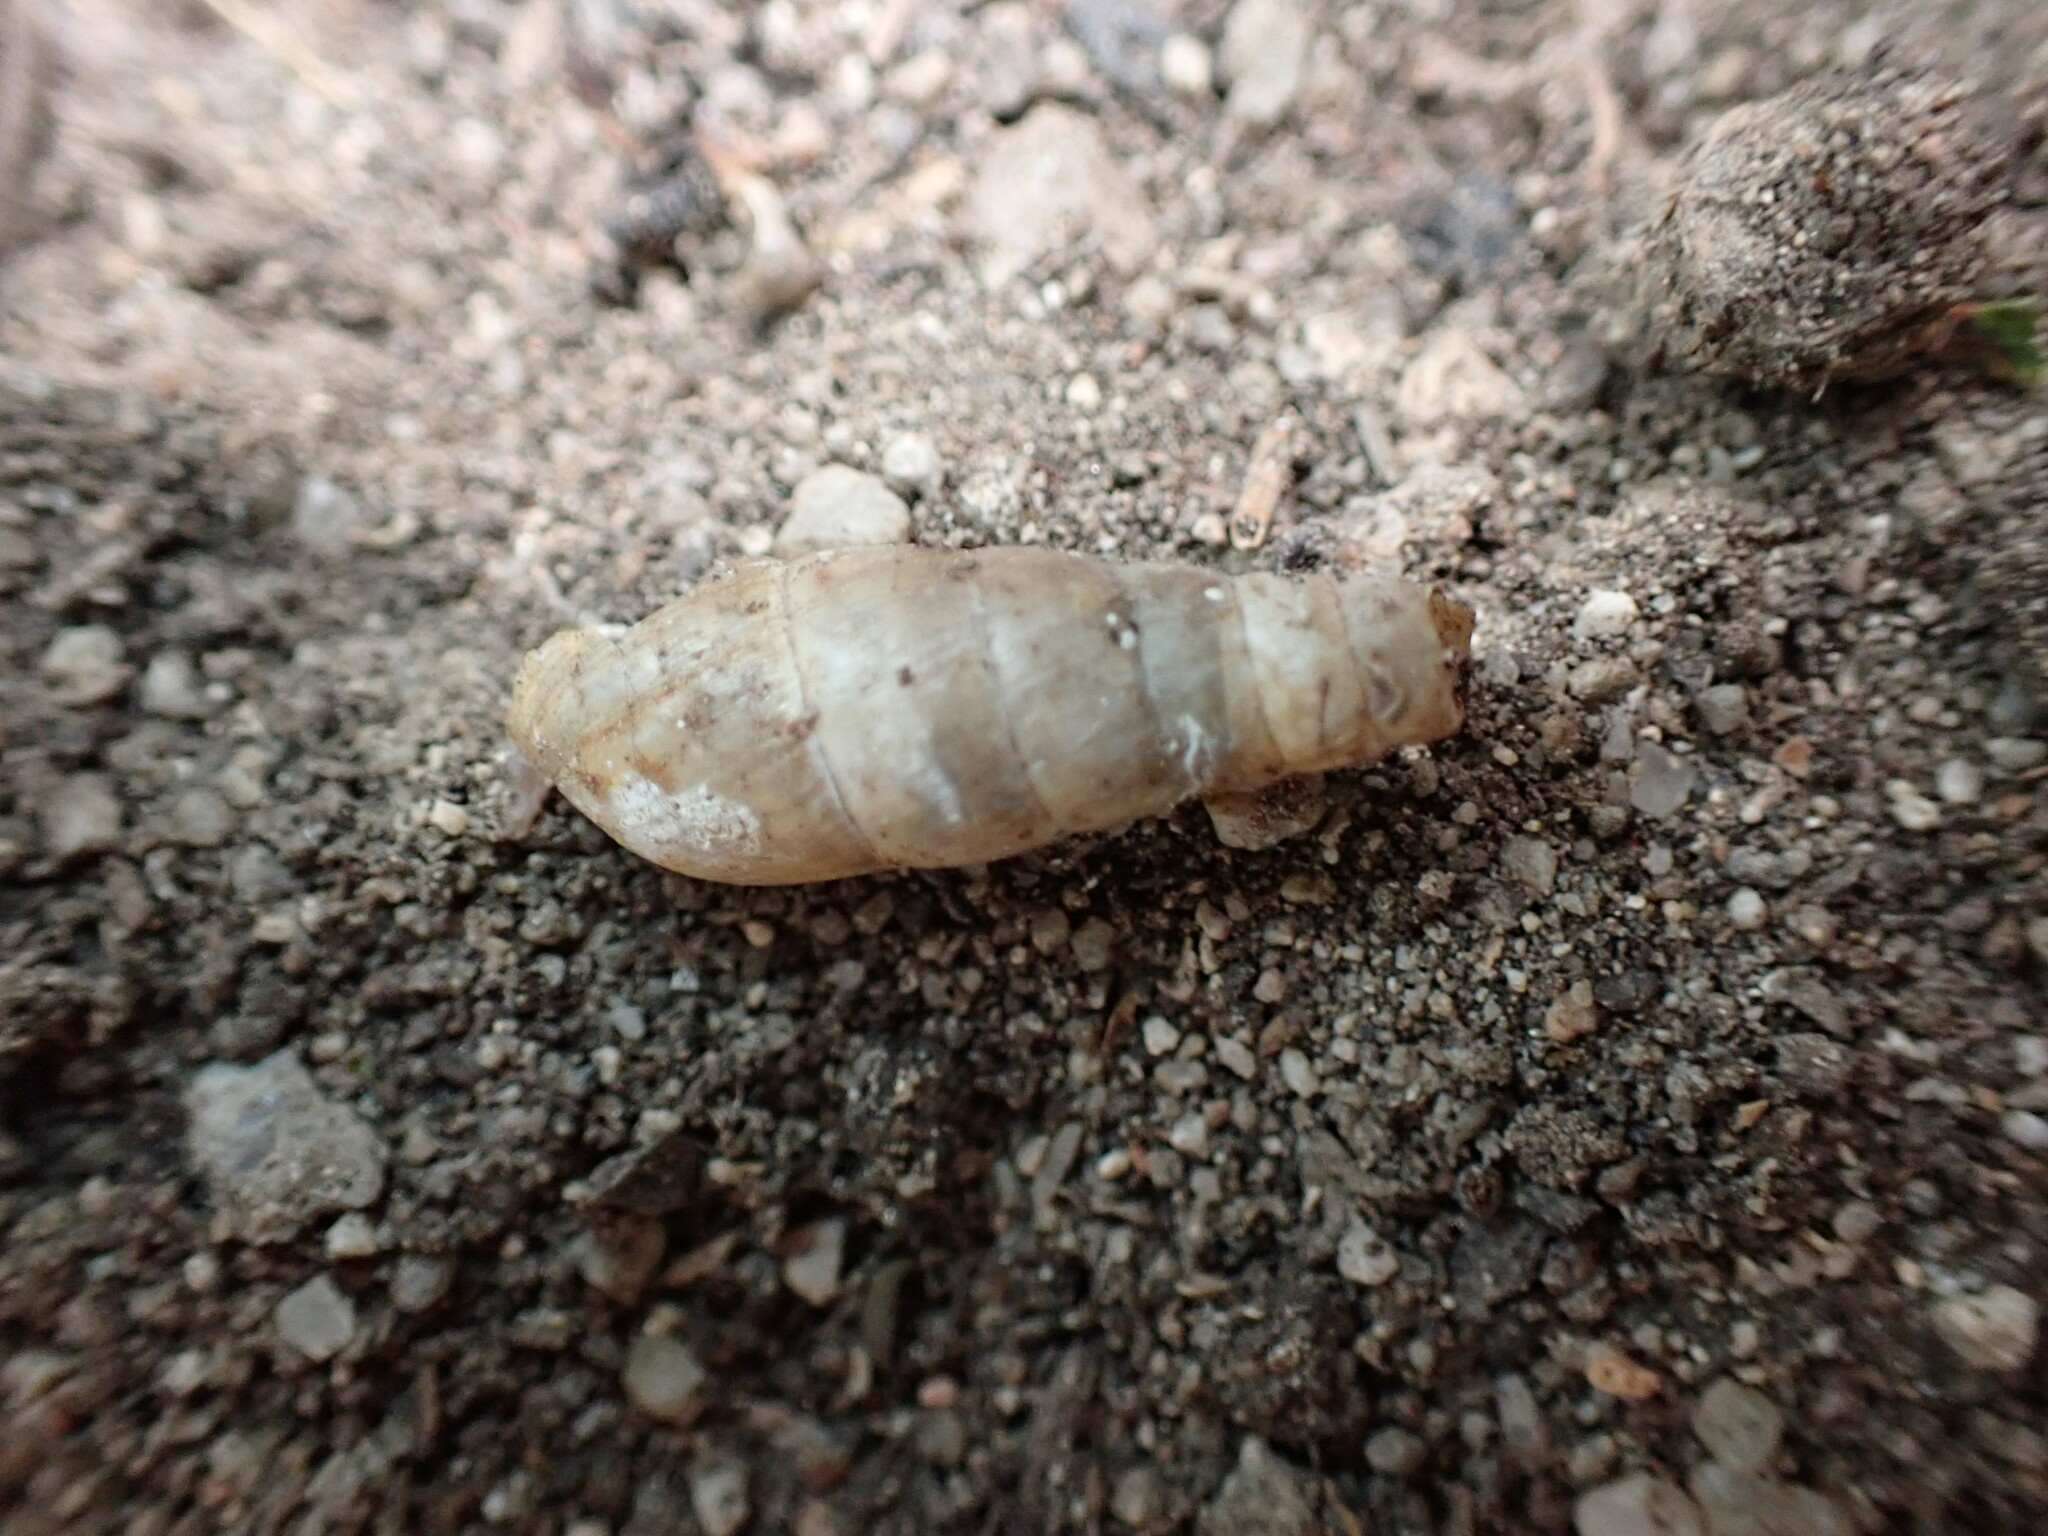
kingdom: Animalia
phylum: Mollusca
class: Gastropoda
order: Stylommatophora
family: Achatinidae
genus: Rumina
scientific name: Rumina decollata
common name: Decollate snail
